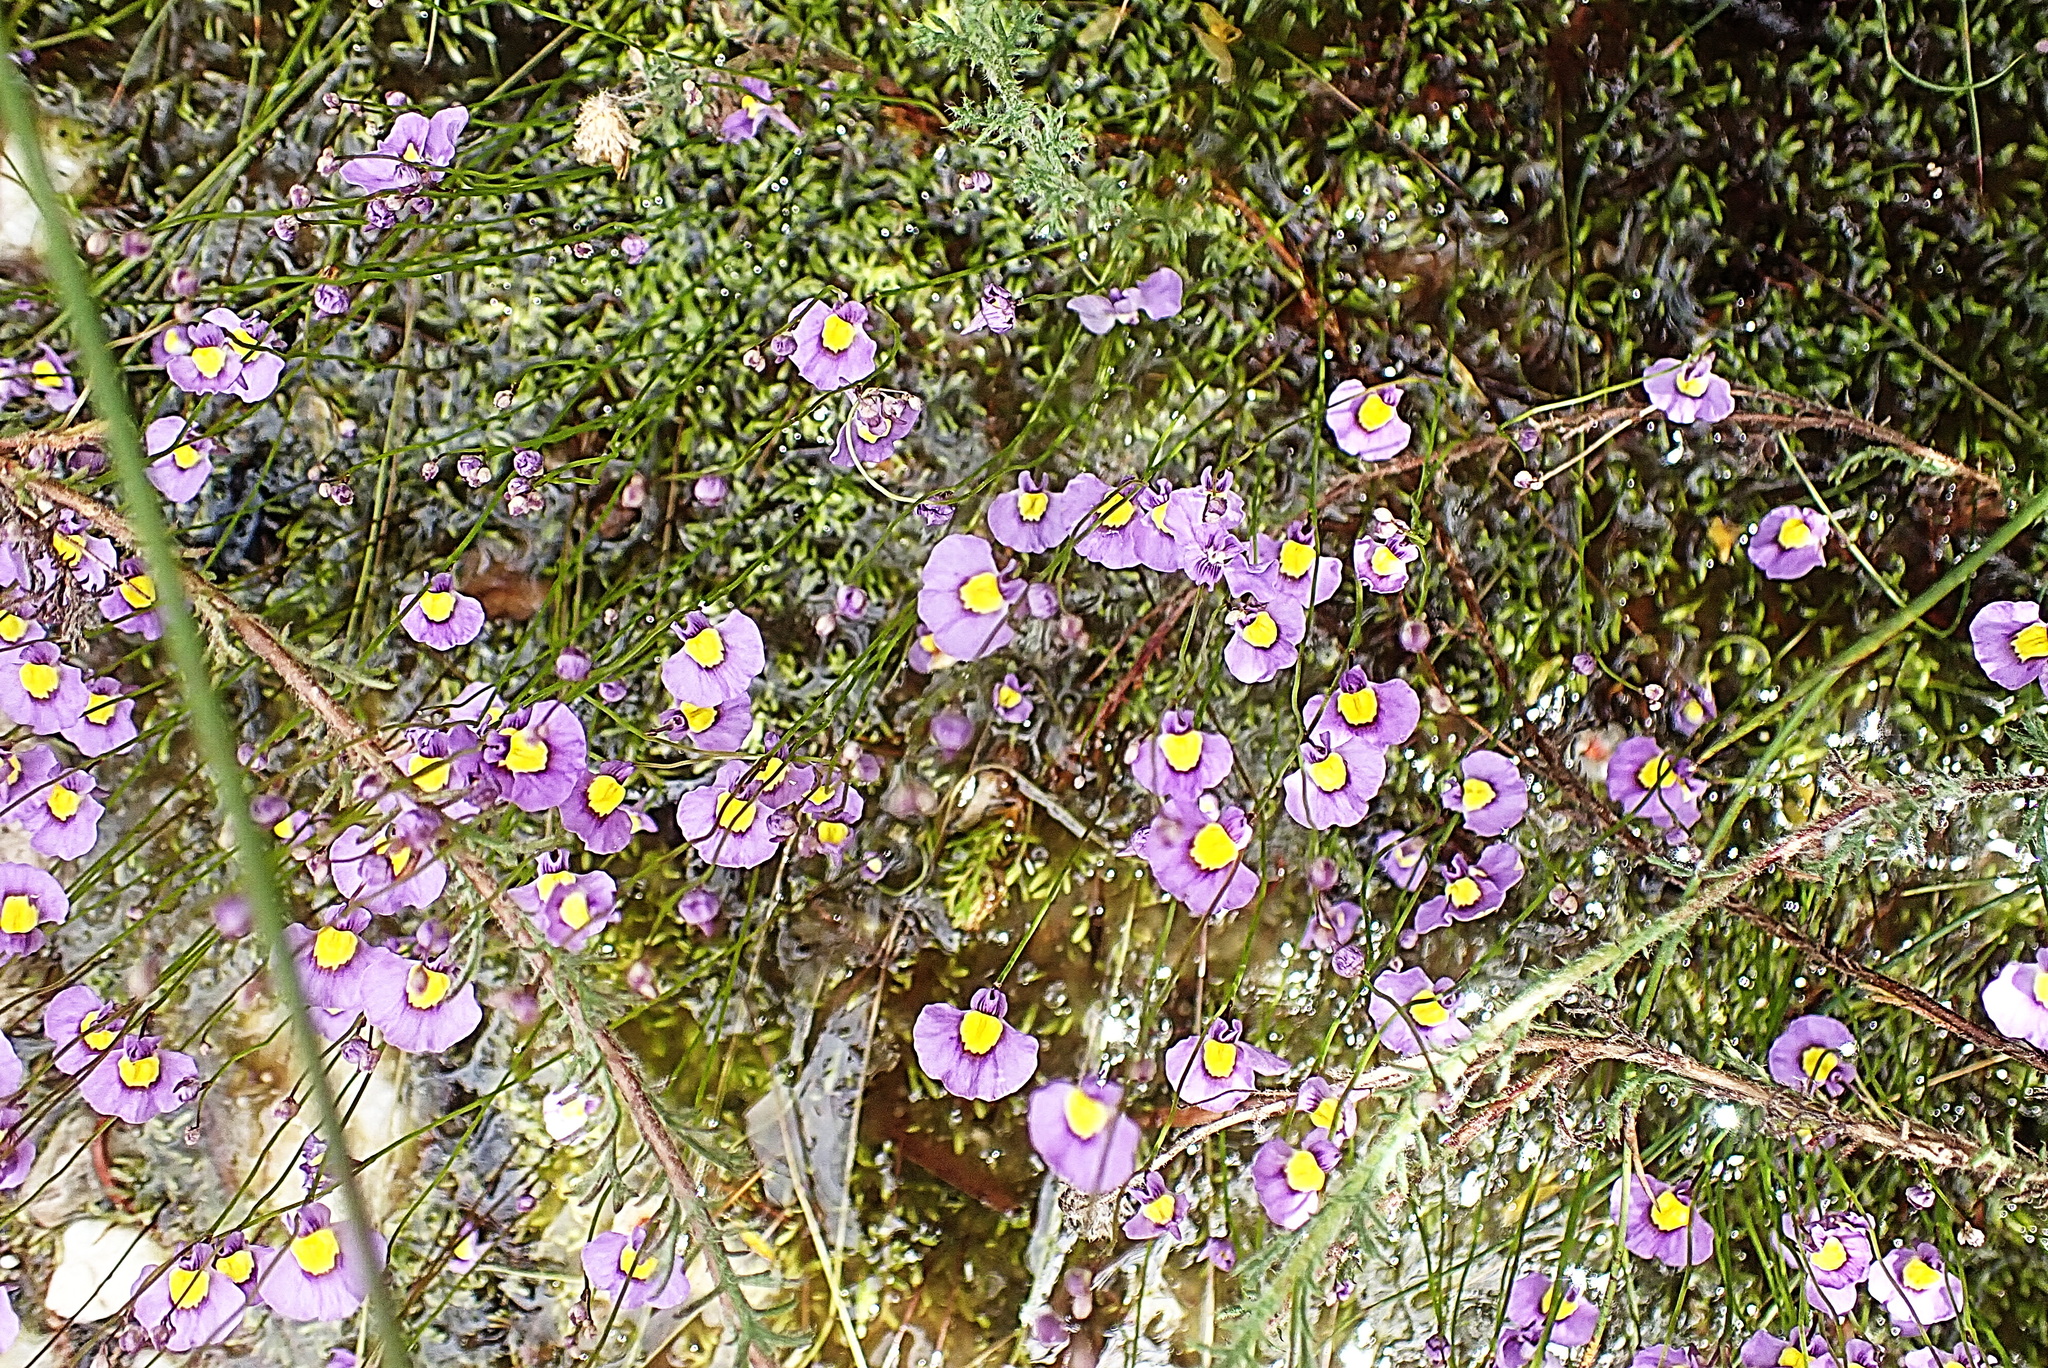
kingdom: Plantae
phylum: Tracheophyta
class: Magnoliopsida
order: Lamiales
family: Lentibulariaceae
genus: Utricularia
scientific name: Utricularia bisquamata
